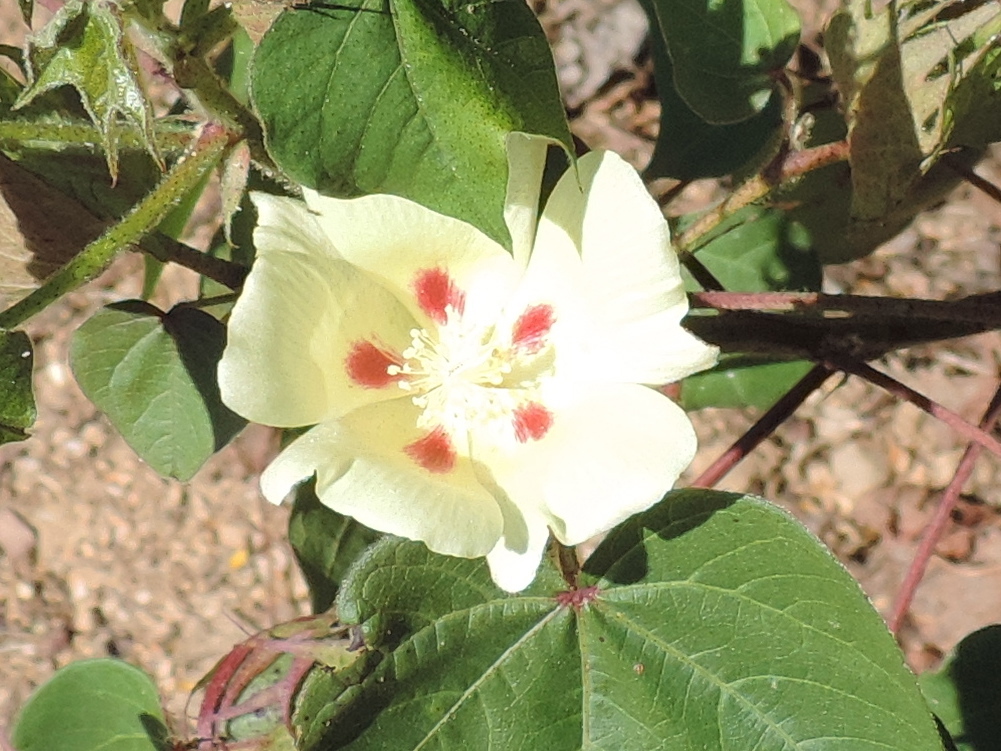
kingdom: Plantae
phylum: Tracheophyta
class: Magnoliopsida
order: Malvales
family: Malvaceae
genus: Gossypium
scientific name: Gossypium hirsutum
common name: Cotton
